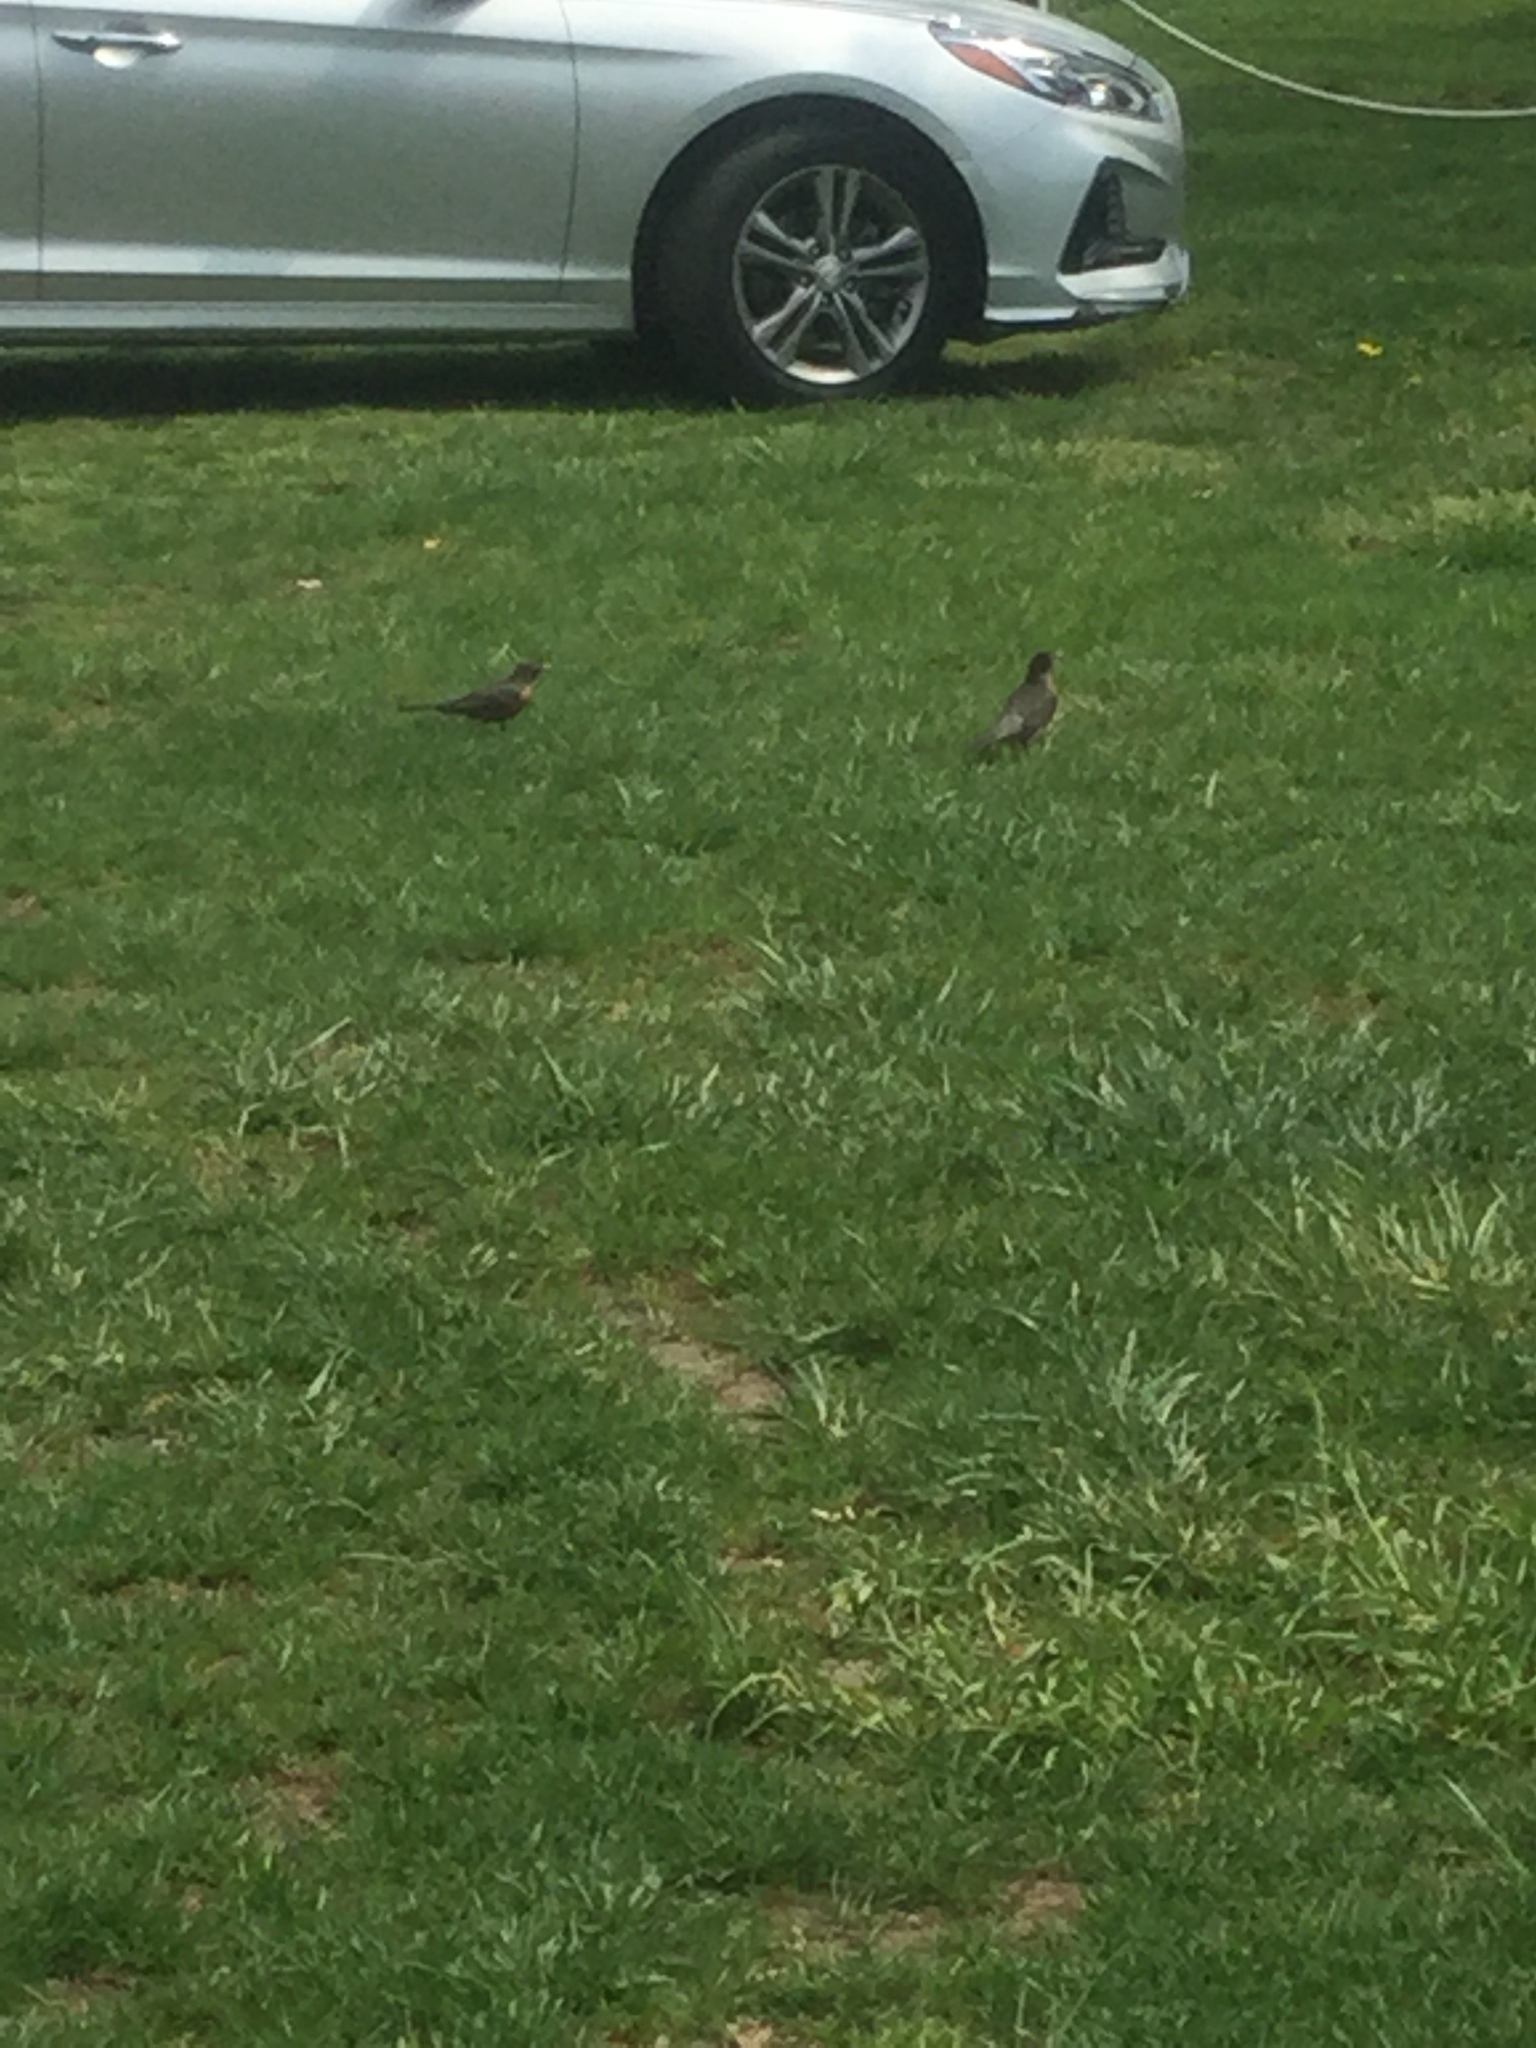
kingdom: Animalia
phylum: Chordata
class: Aves
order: Passeriformes
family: Turdidae
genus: Turdus
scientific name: Turdus migratorius
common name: American robin
